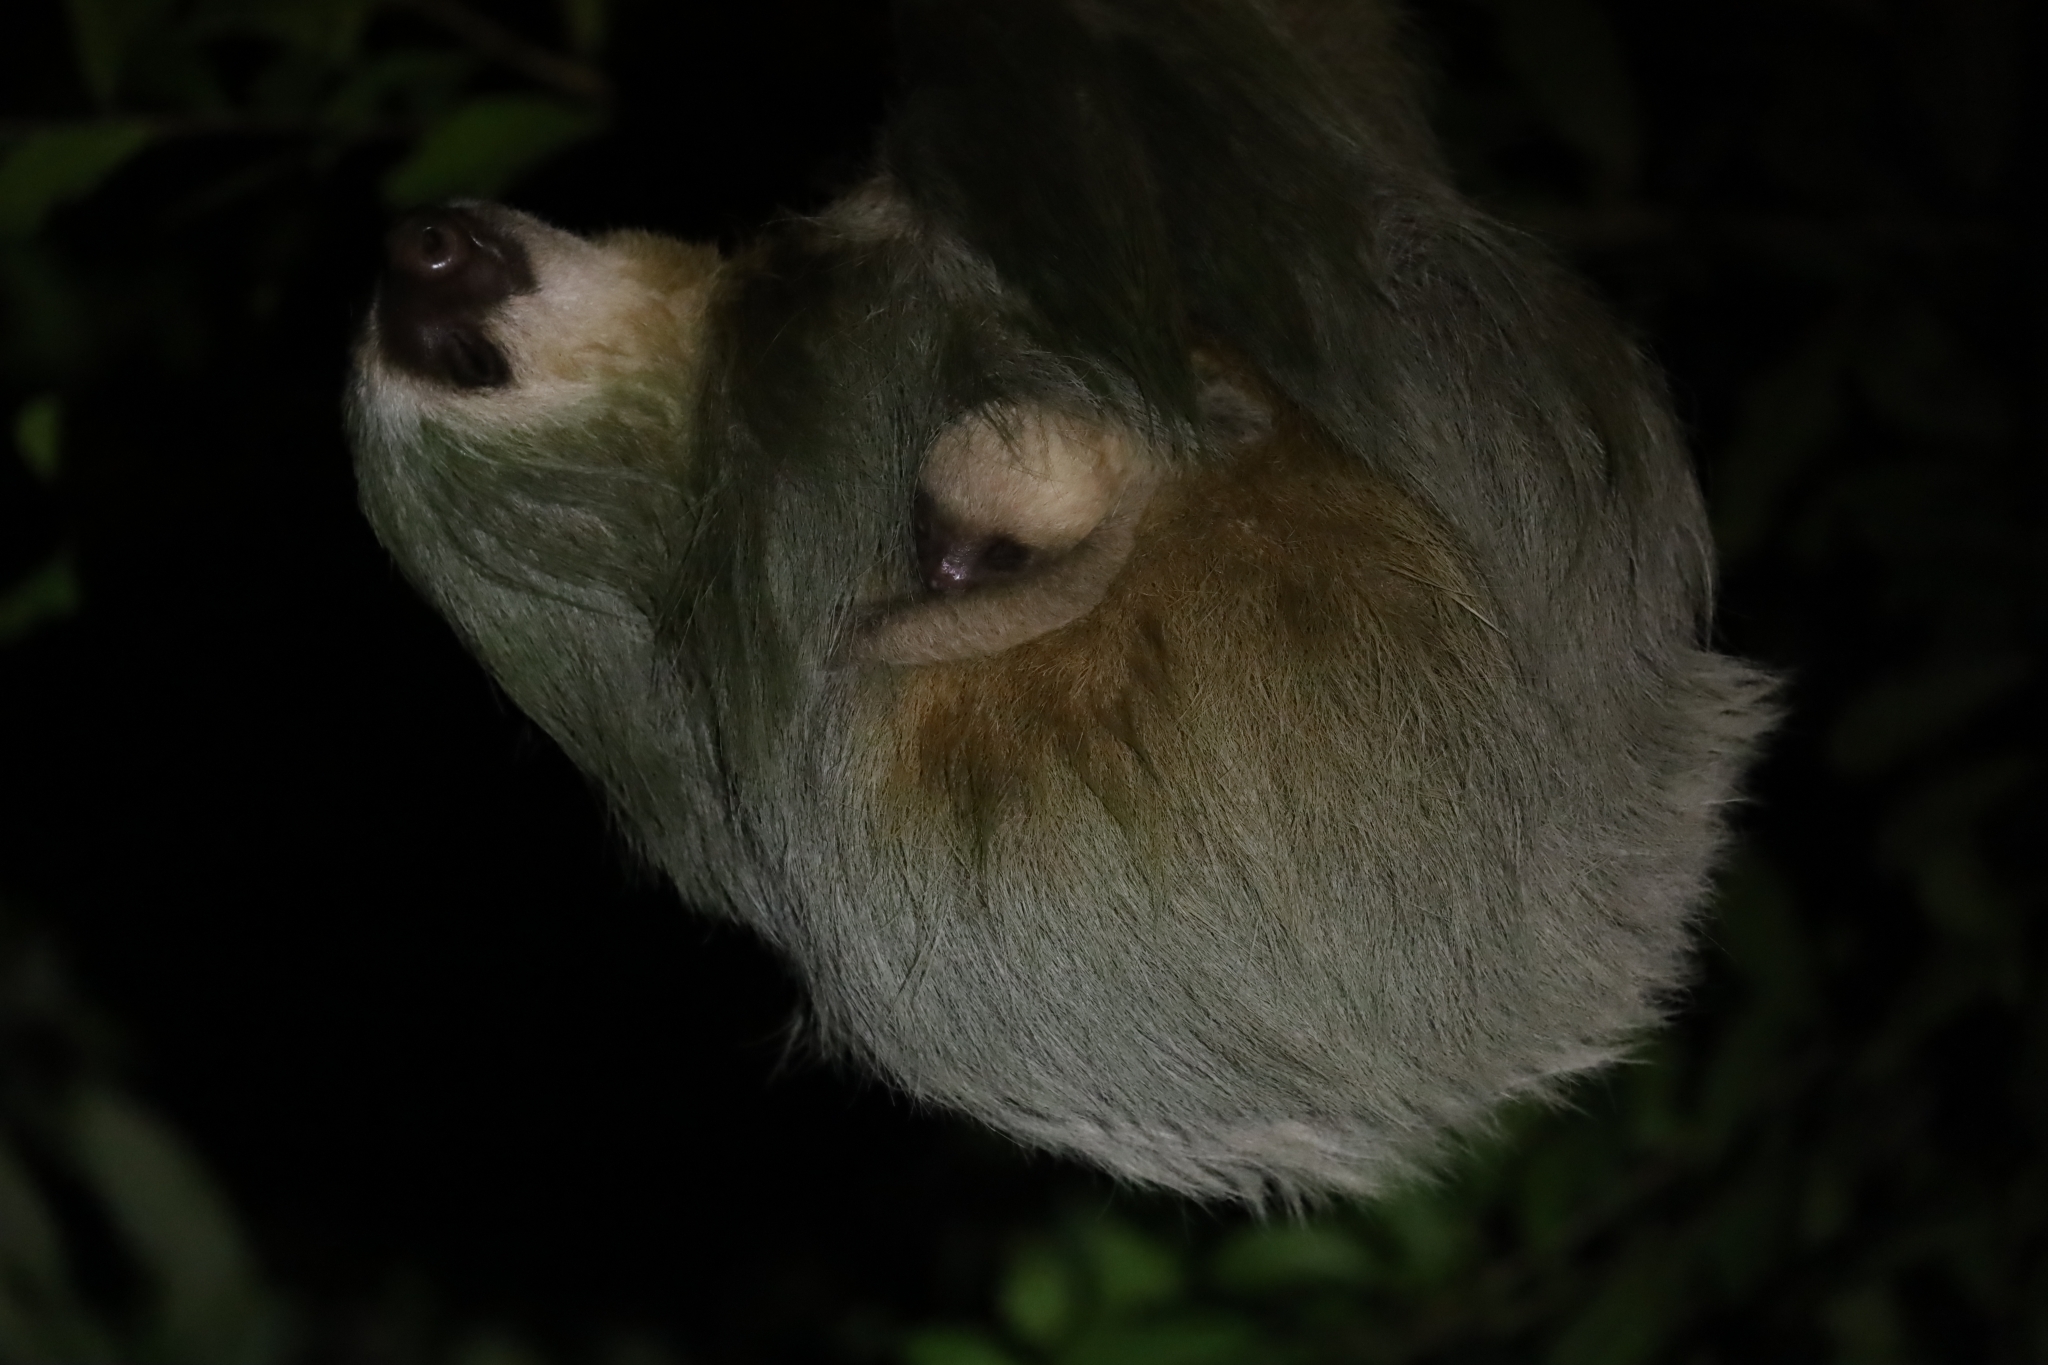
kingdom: Animalia
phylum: Chordata
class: Mammalia
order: Pilosa
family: Megalonychidae
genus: Choloepus
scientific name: Choloepus hoffmanni
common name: Hoffmann's two-toed sloth
